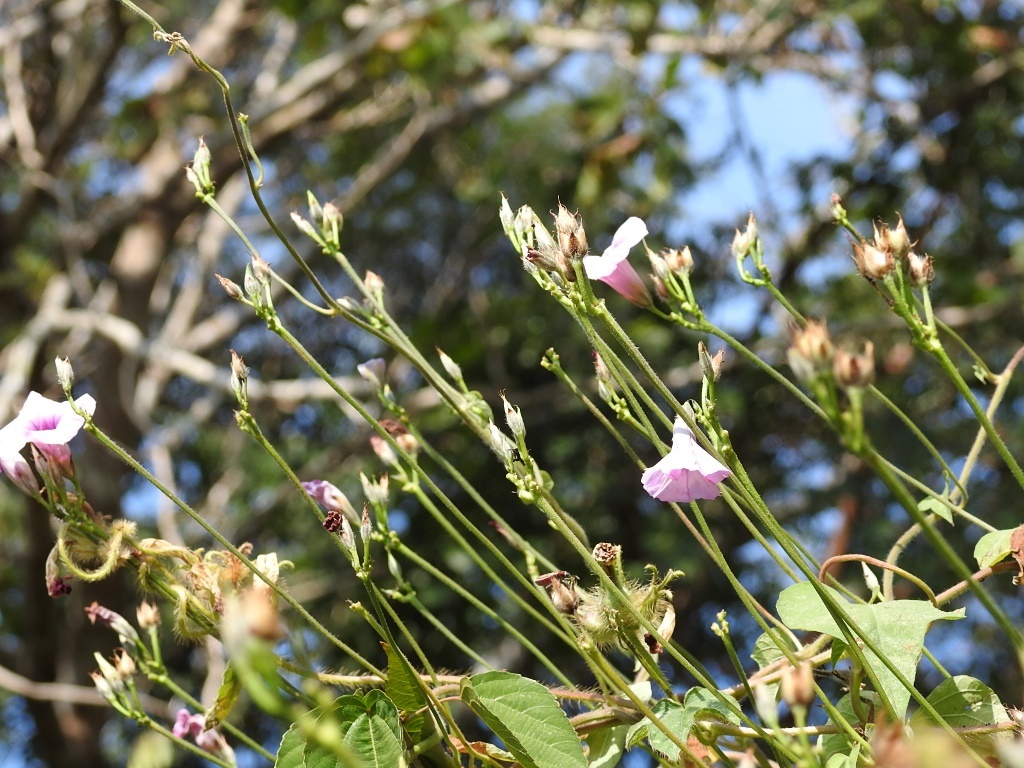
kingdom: Plantae
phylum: Tracheophyta
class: Magnoliopsida
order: Solanales
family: Convolvulaceae
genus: Ipomoea
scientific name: Ipomoea trifida
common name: Cotton morningglory
